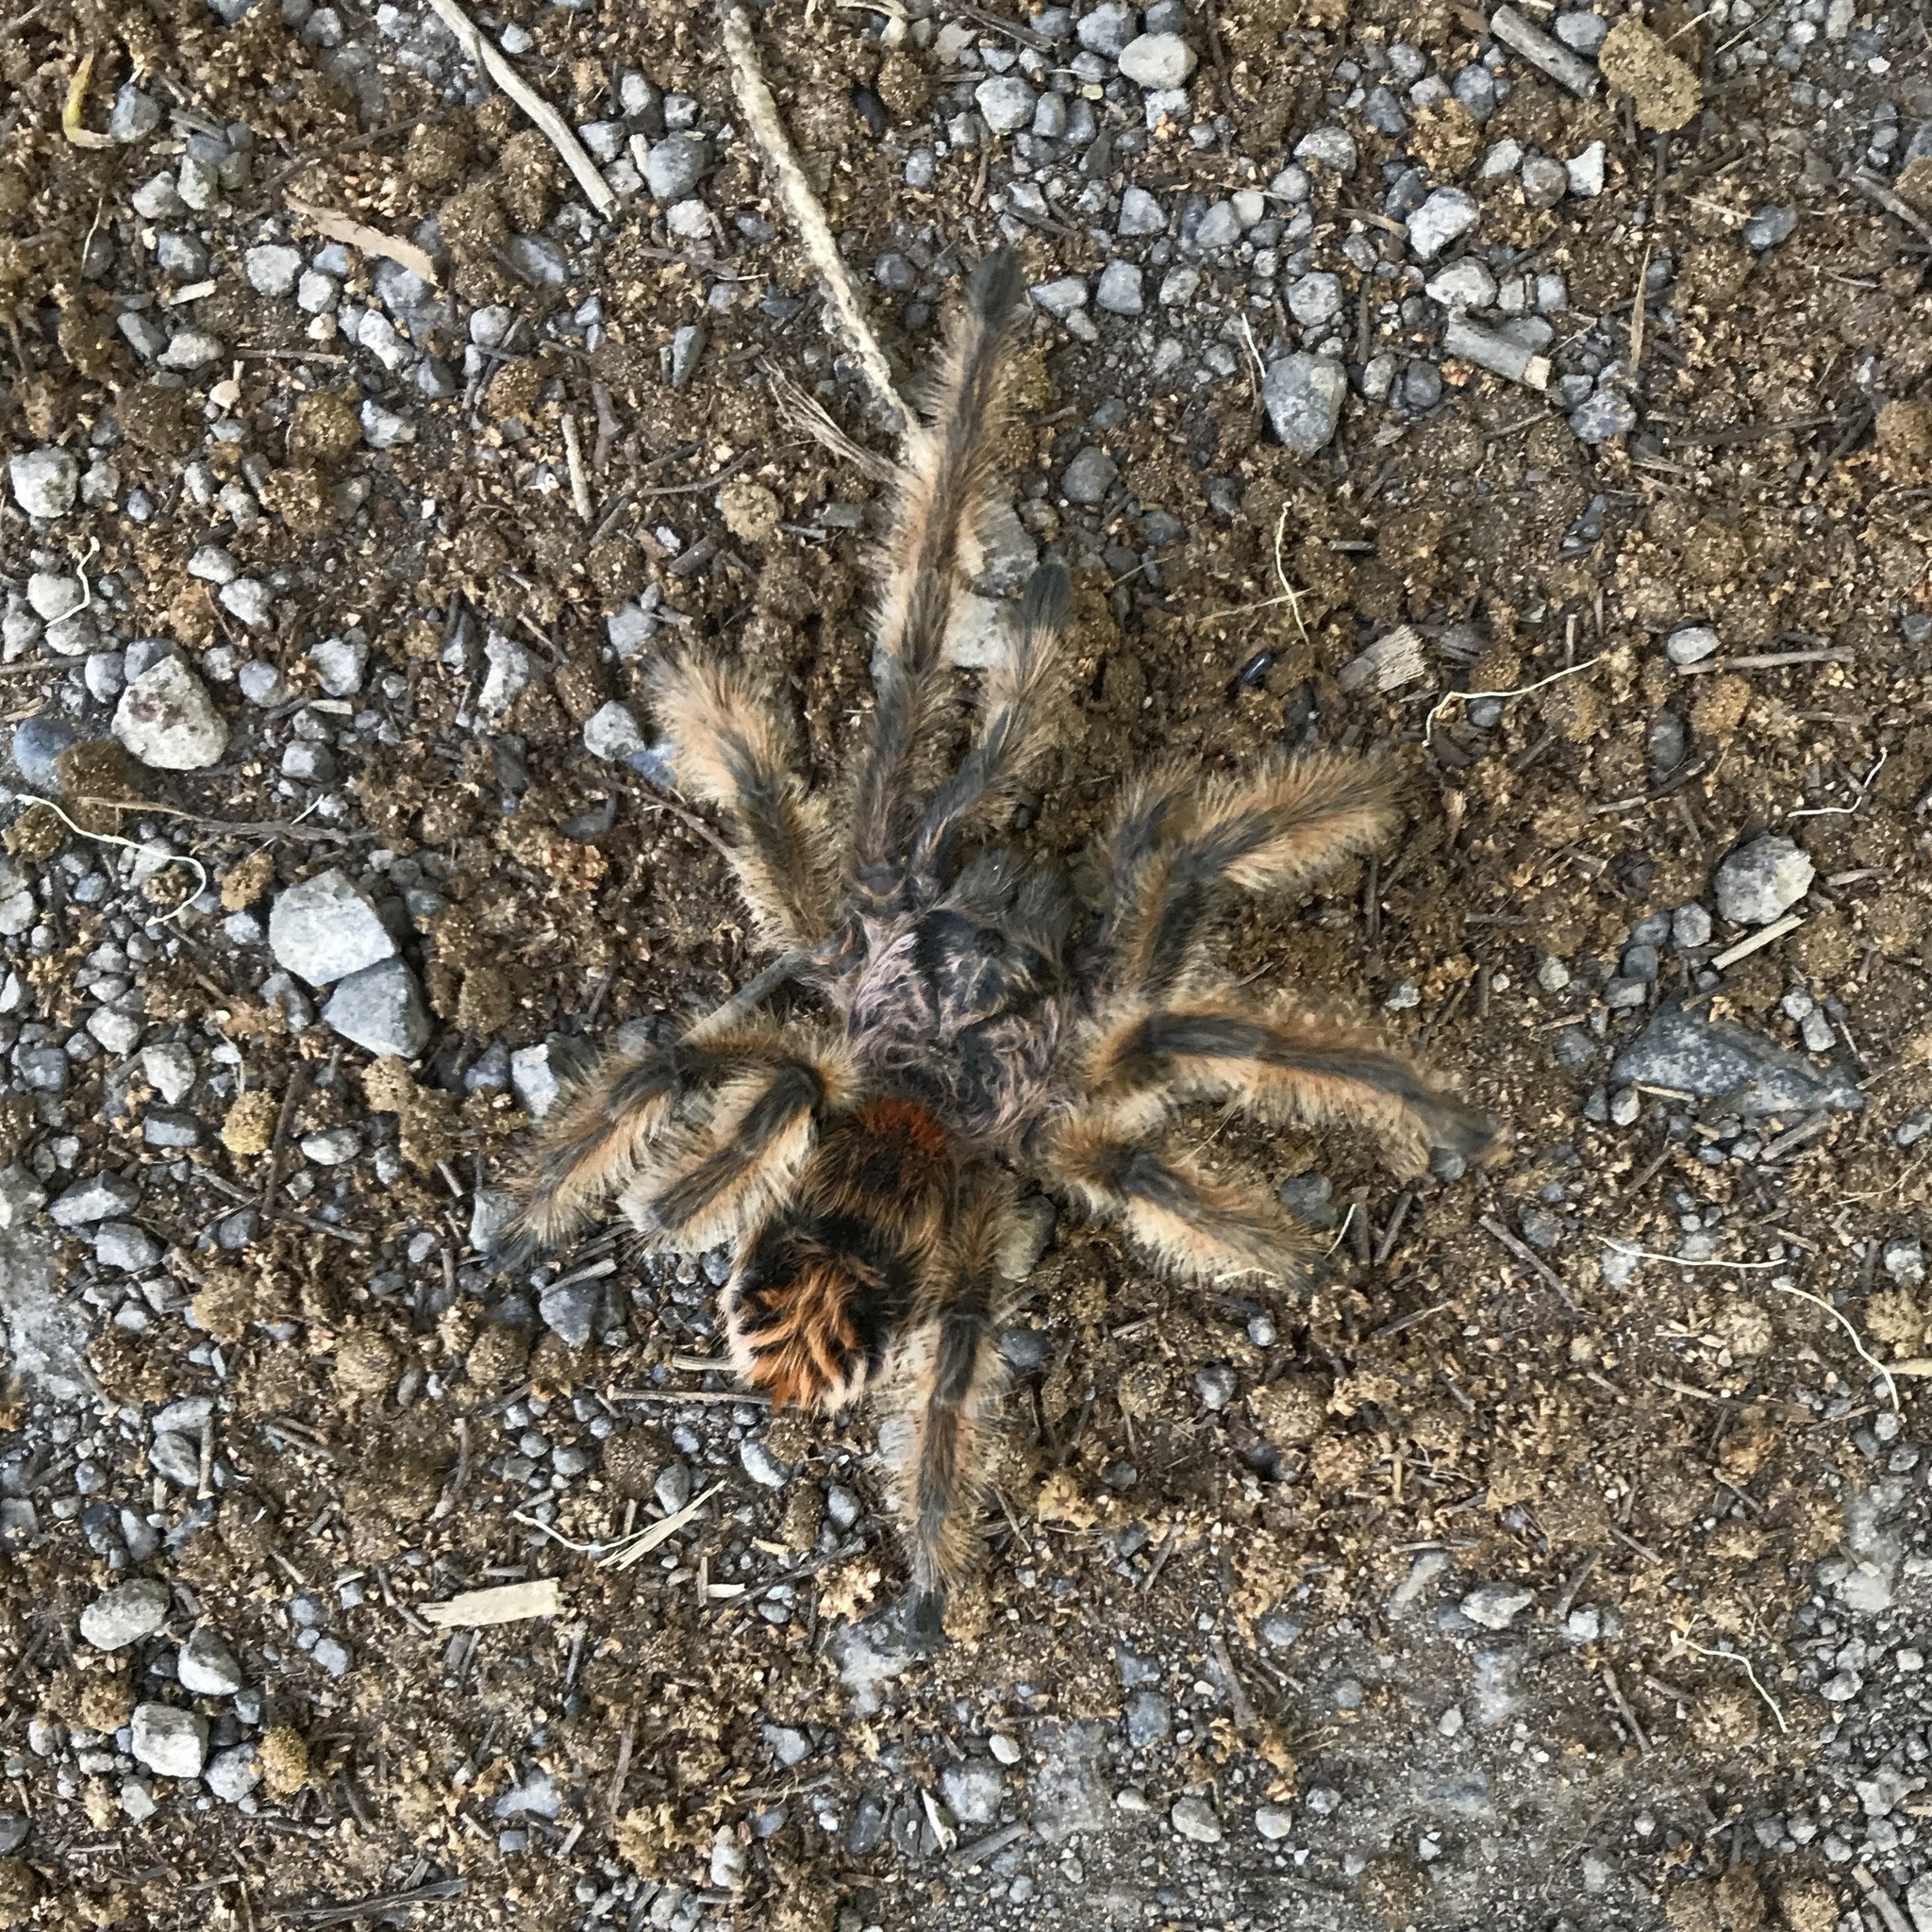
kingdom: Animalia
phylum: Arthropoda
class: Arachnida
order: Araneae
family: Theraphosidae
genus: Phrixotrichus
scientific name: Phrixotrichus vulpinus
